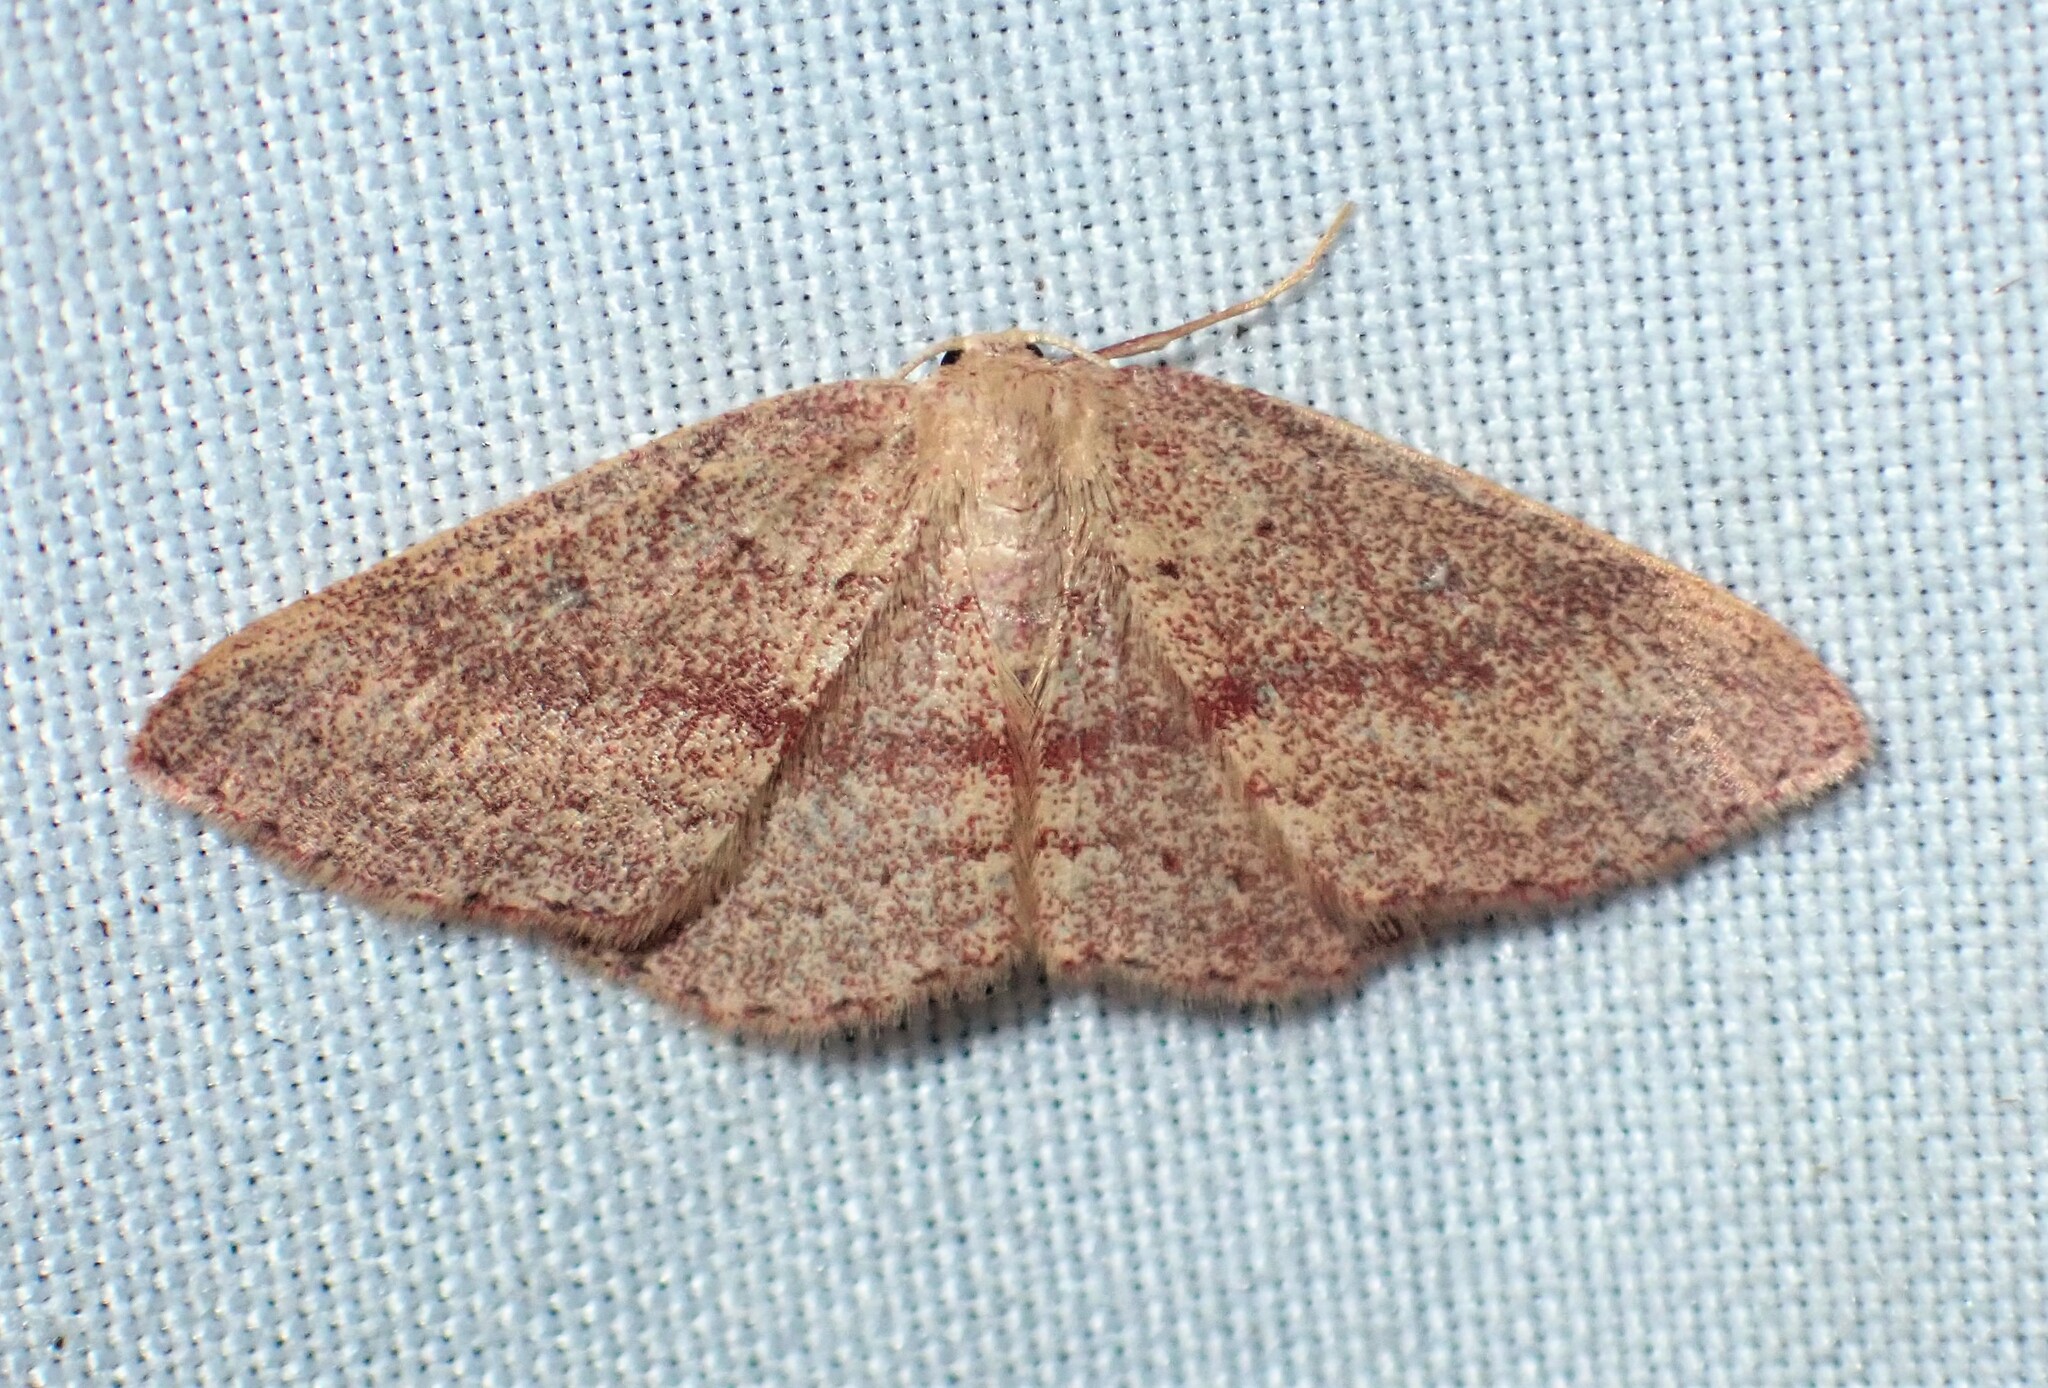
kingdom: Animalia
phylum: Arthropoda
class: Insecta
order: Lepidoptera
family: Geometridae
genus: Cyclophora
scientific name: Cyclophora azorensis
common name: Geometer moth
